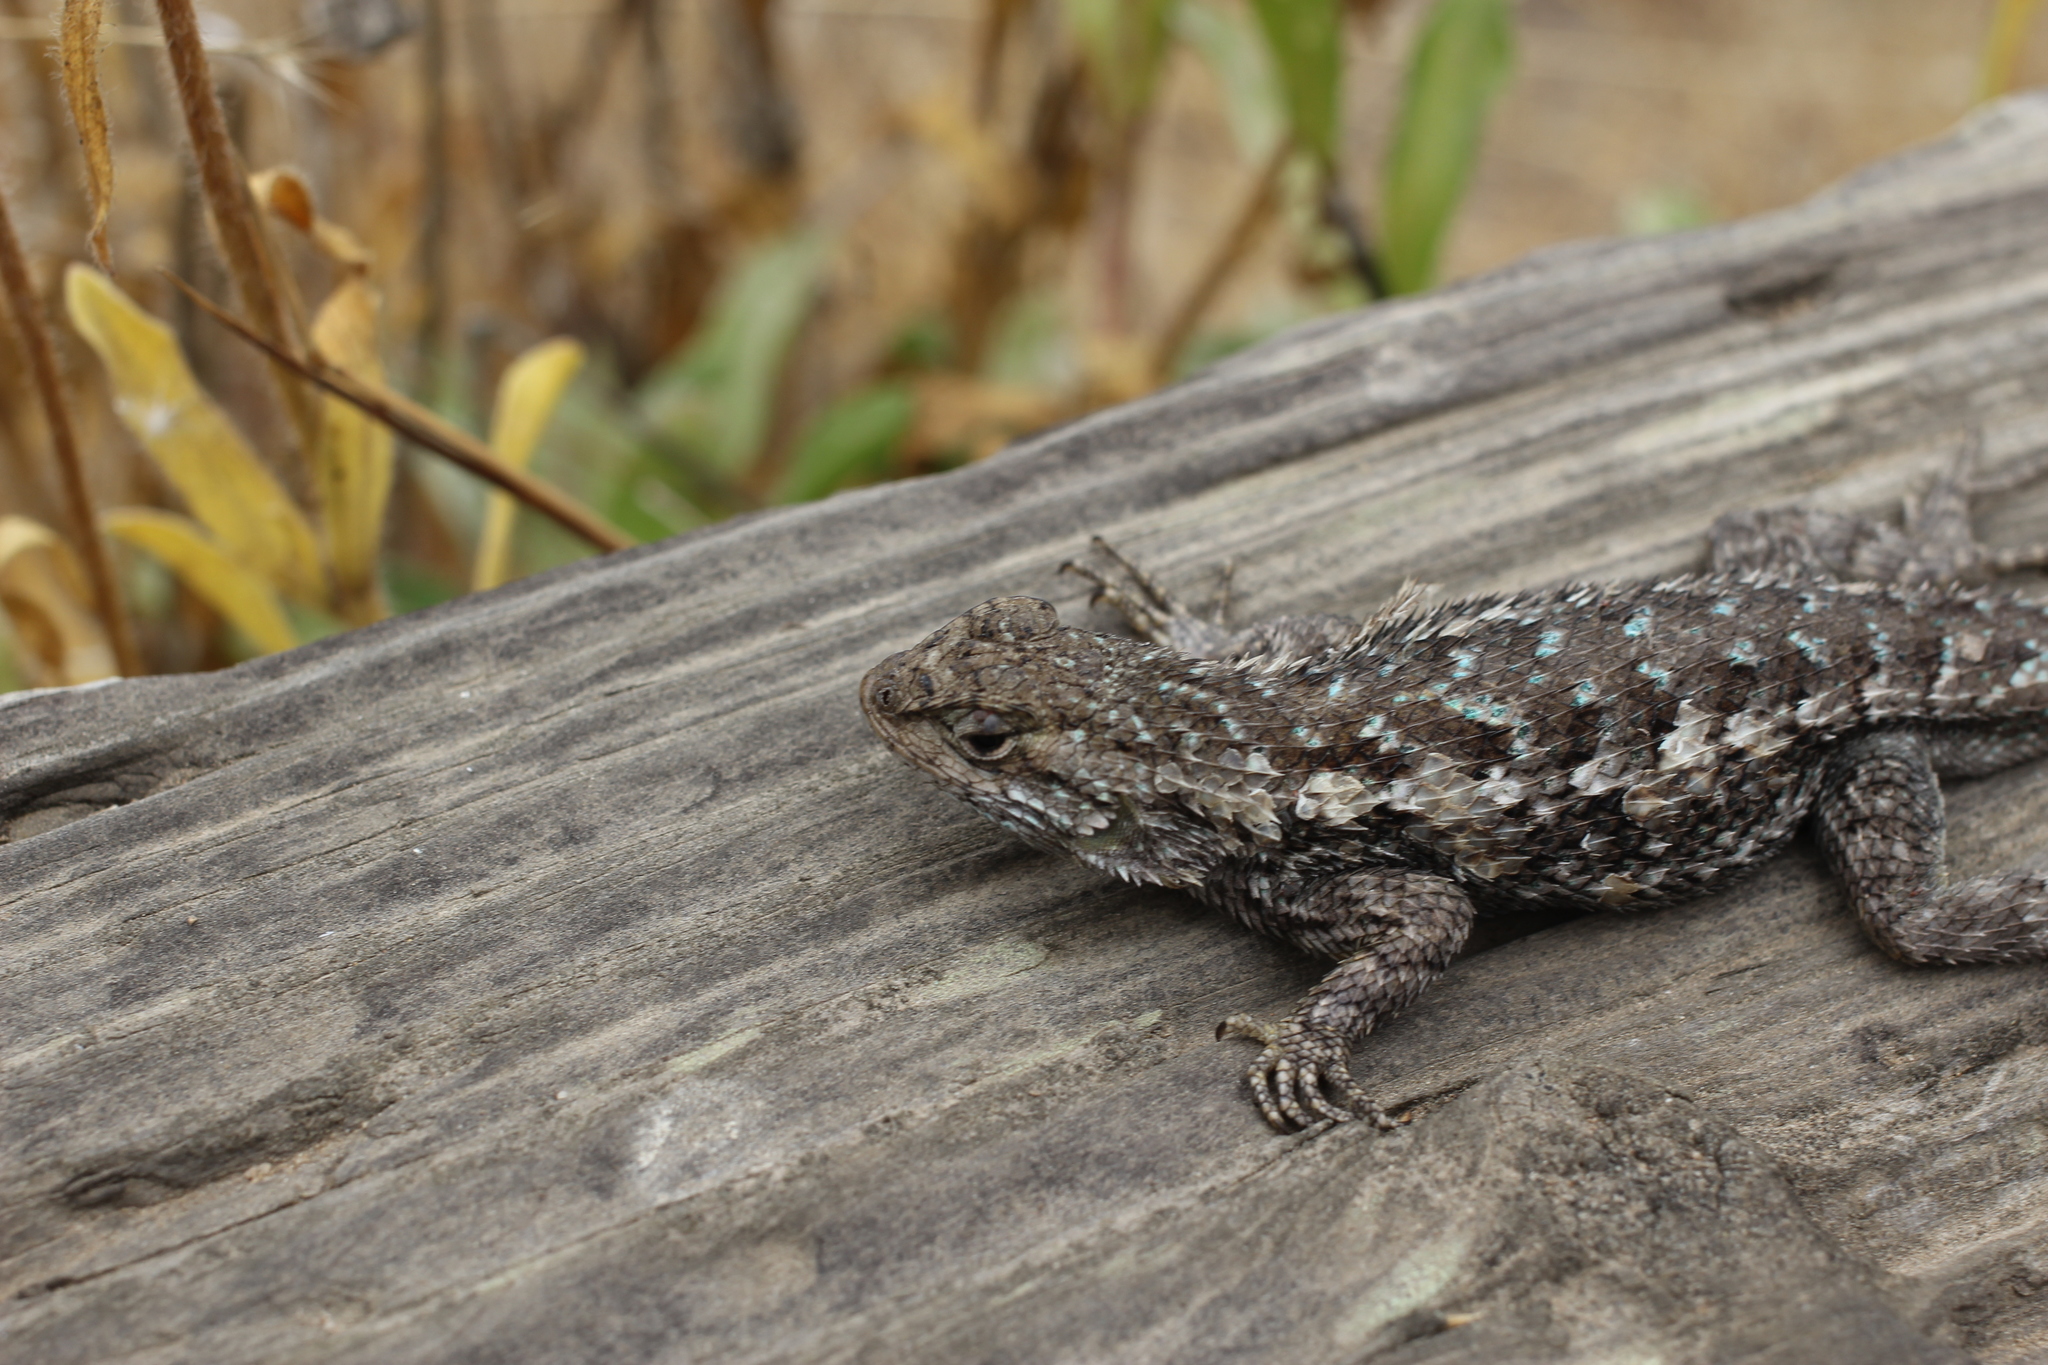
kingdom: Animalia
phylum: Chordata
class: Squamata
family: Phrynosomatidae
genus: Sceloporus
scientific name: Sceloporus occidentalis
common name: Western fence lizard
